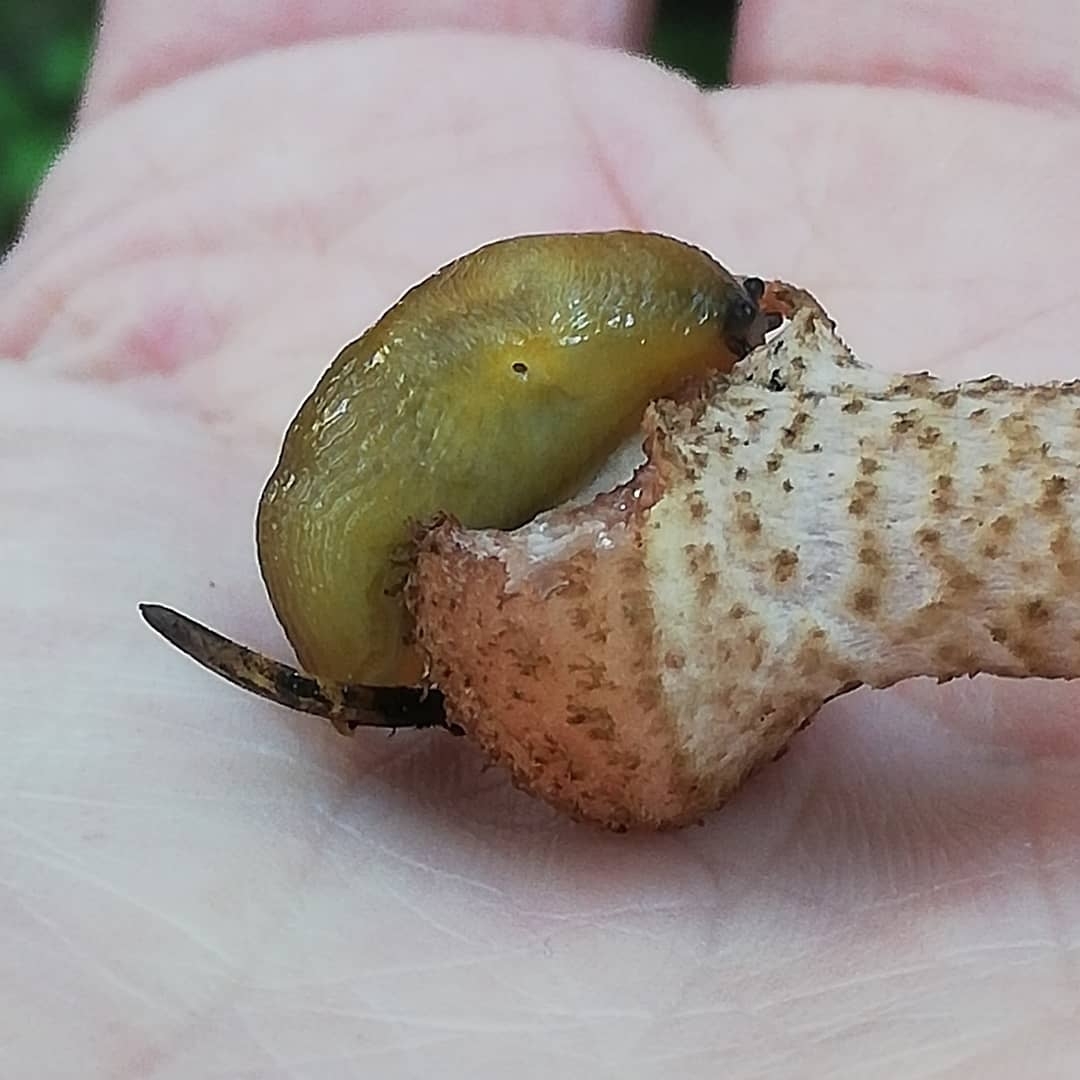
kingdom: Animalia
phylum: Mollusca
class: Gastropoda
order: Stylommatophora
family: Limacidae
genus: Malacolimax
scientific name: Malacolimax tenellus
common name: Lemon slug
